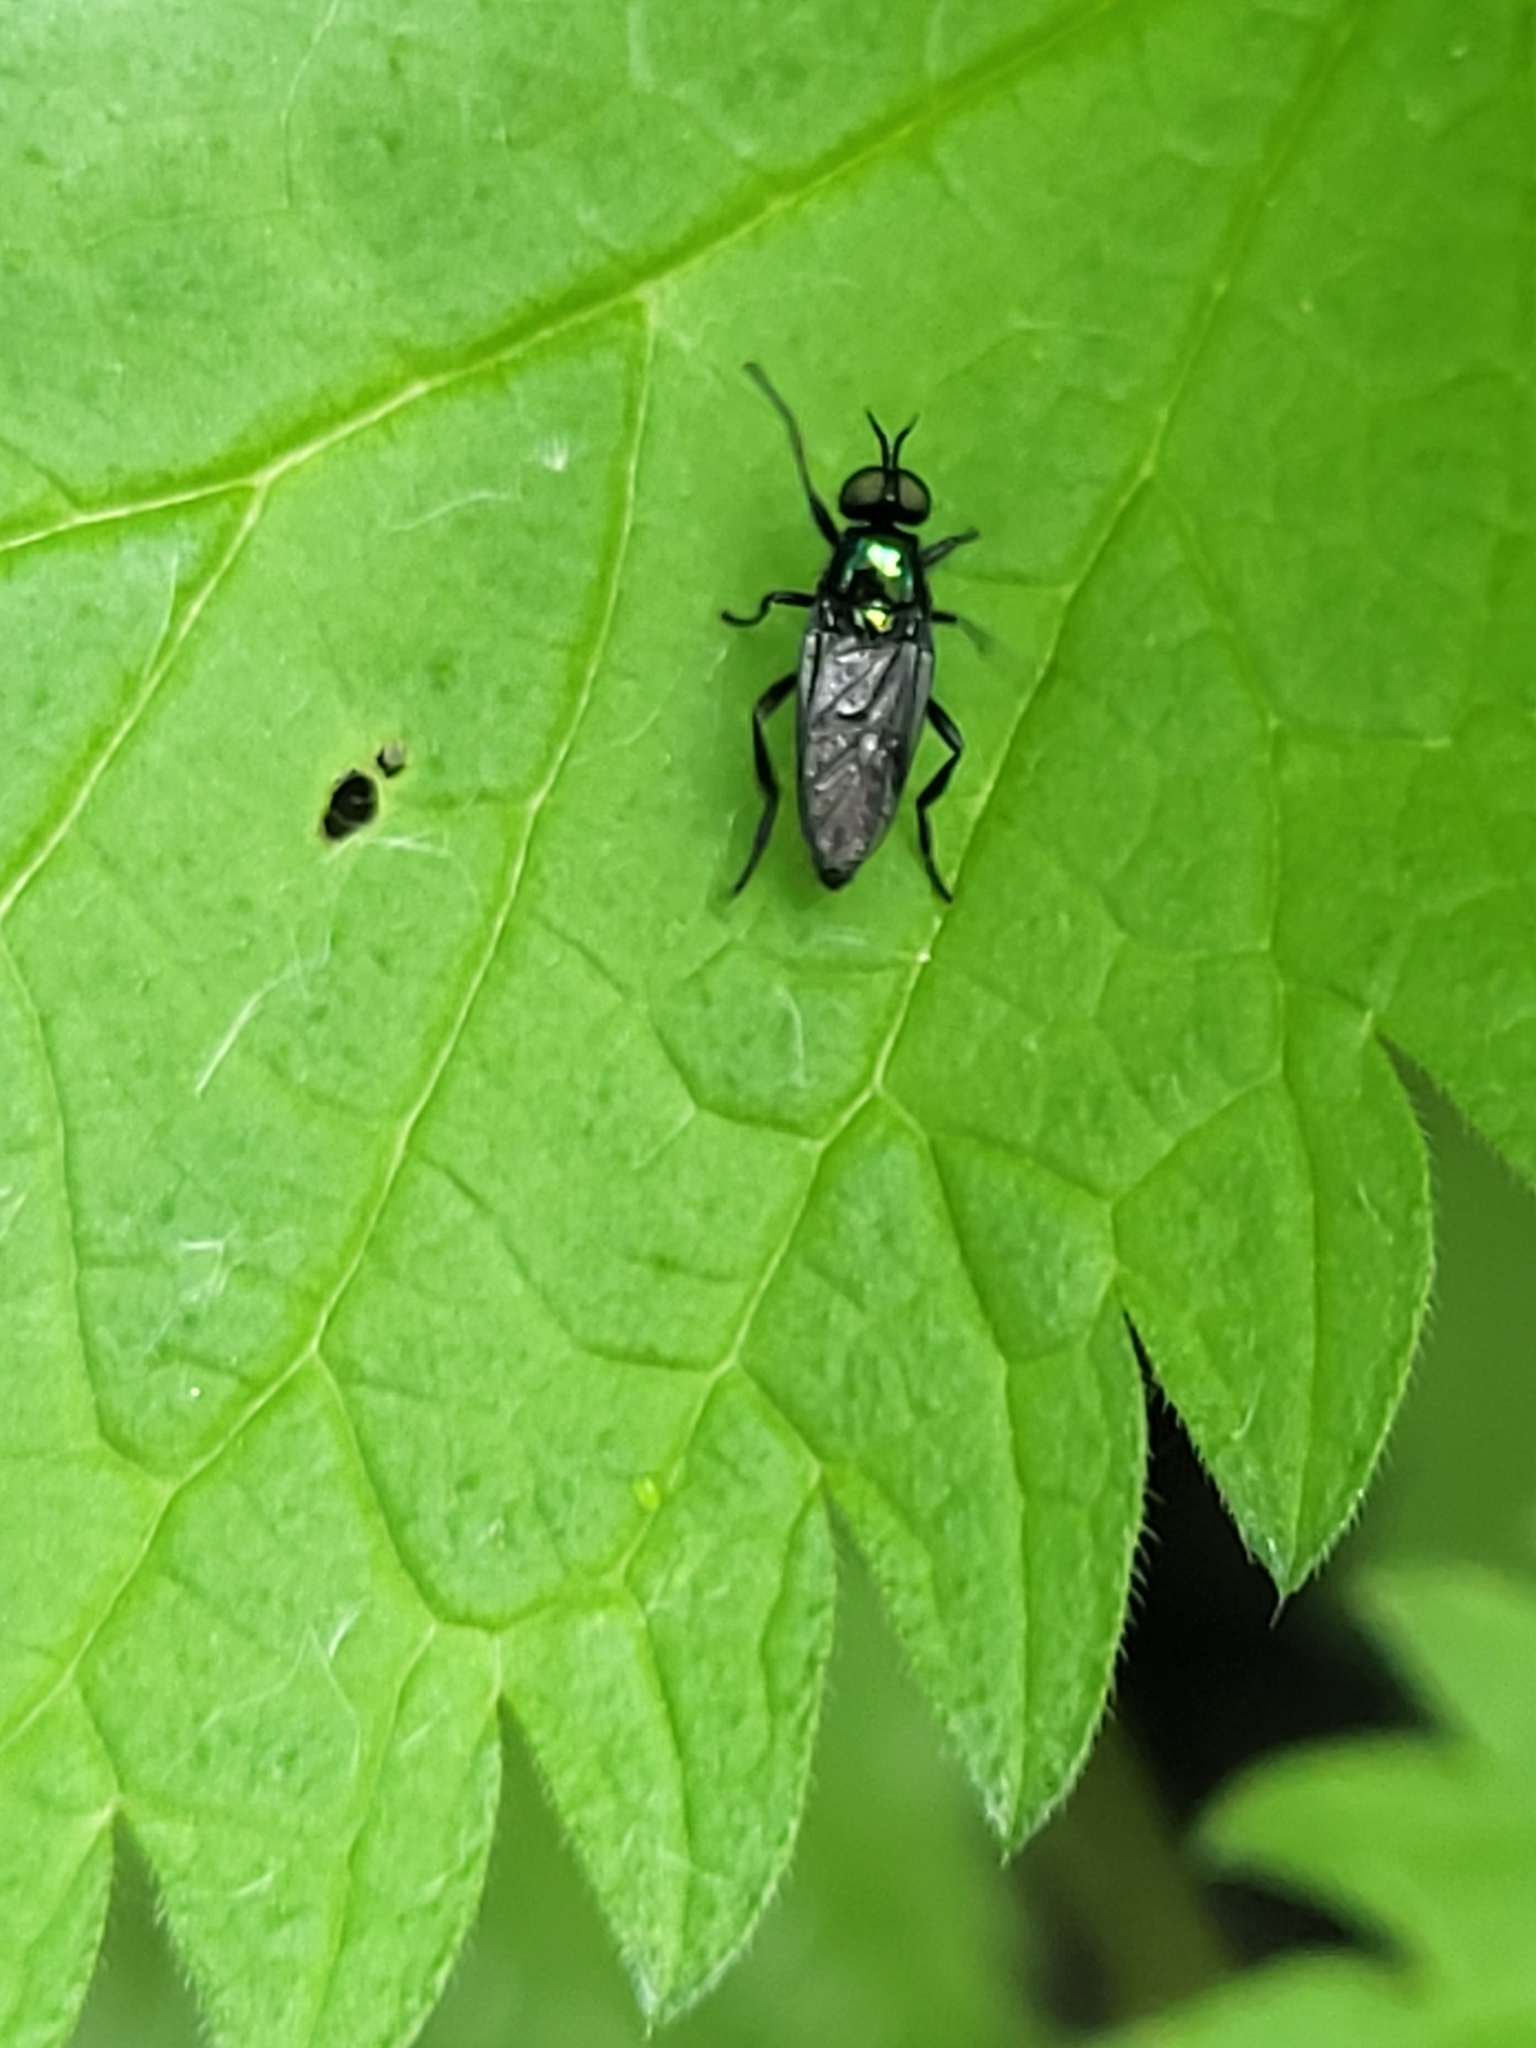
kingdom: Animalia
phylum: Arthropoda
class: Insecta
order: Diptera
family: Stratiomyidae
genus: Actina
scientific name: Actina chalybea
